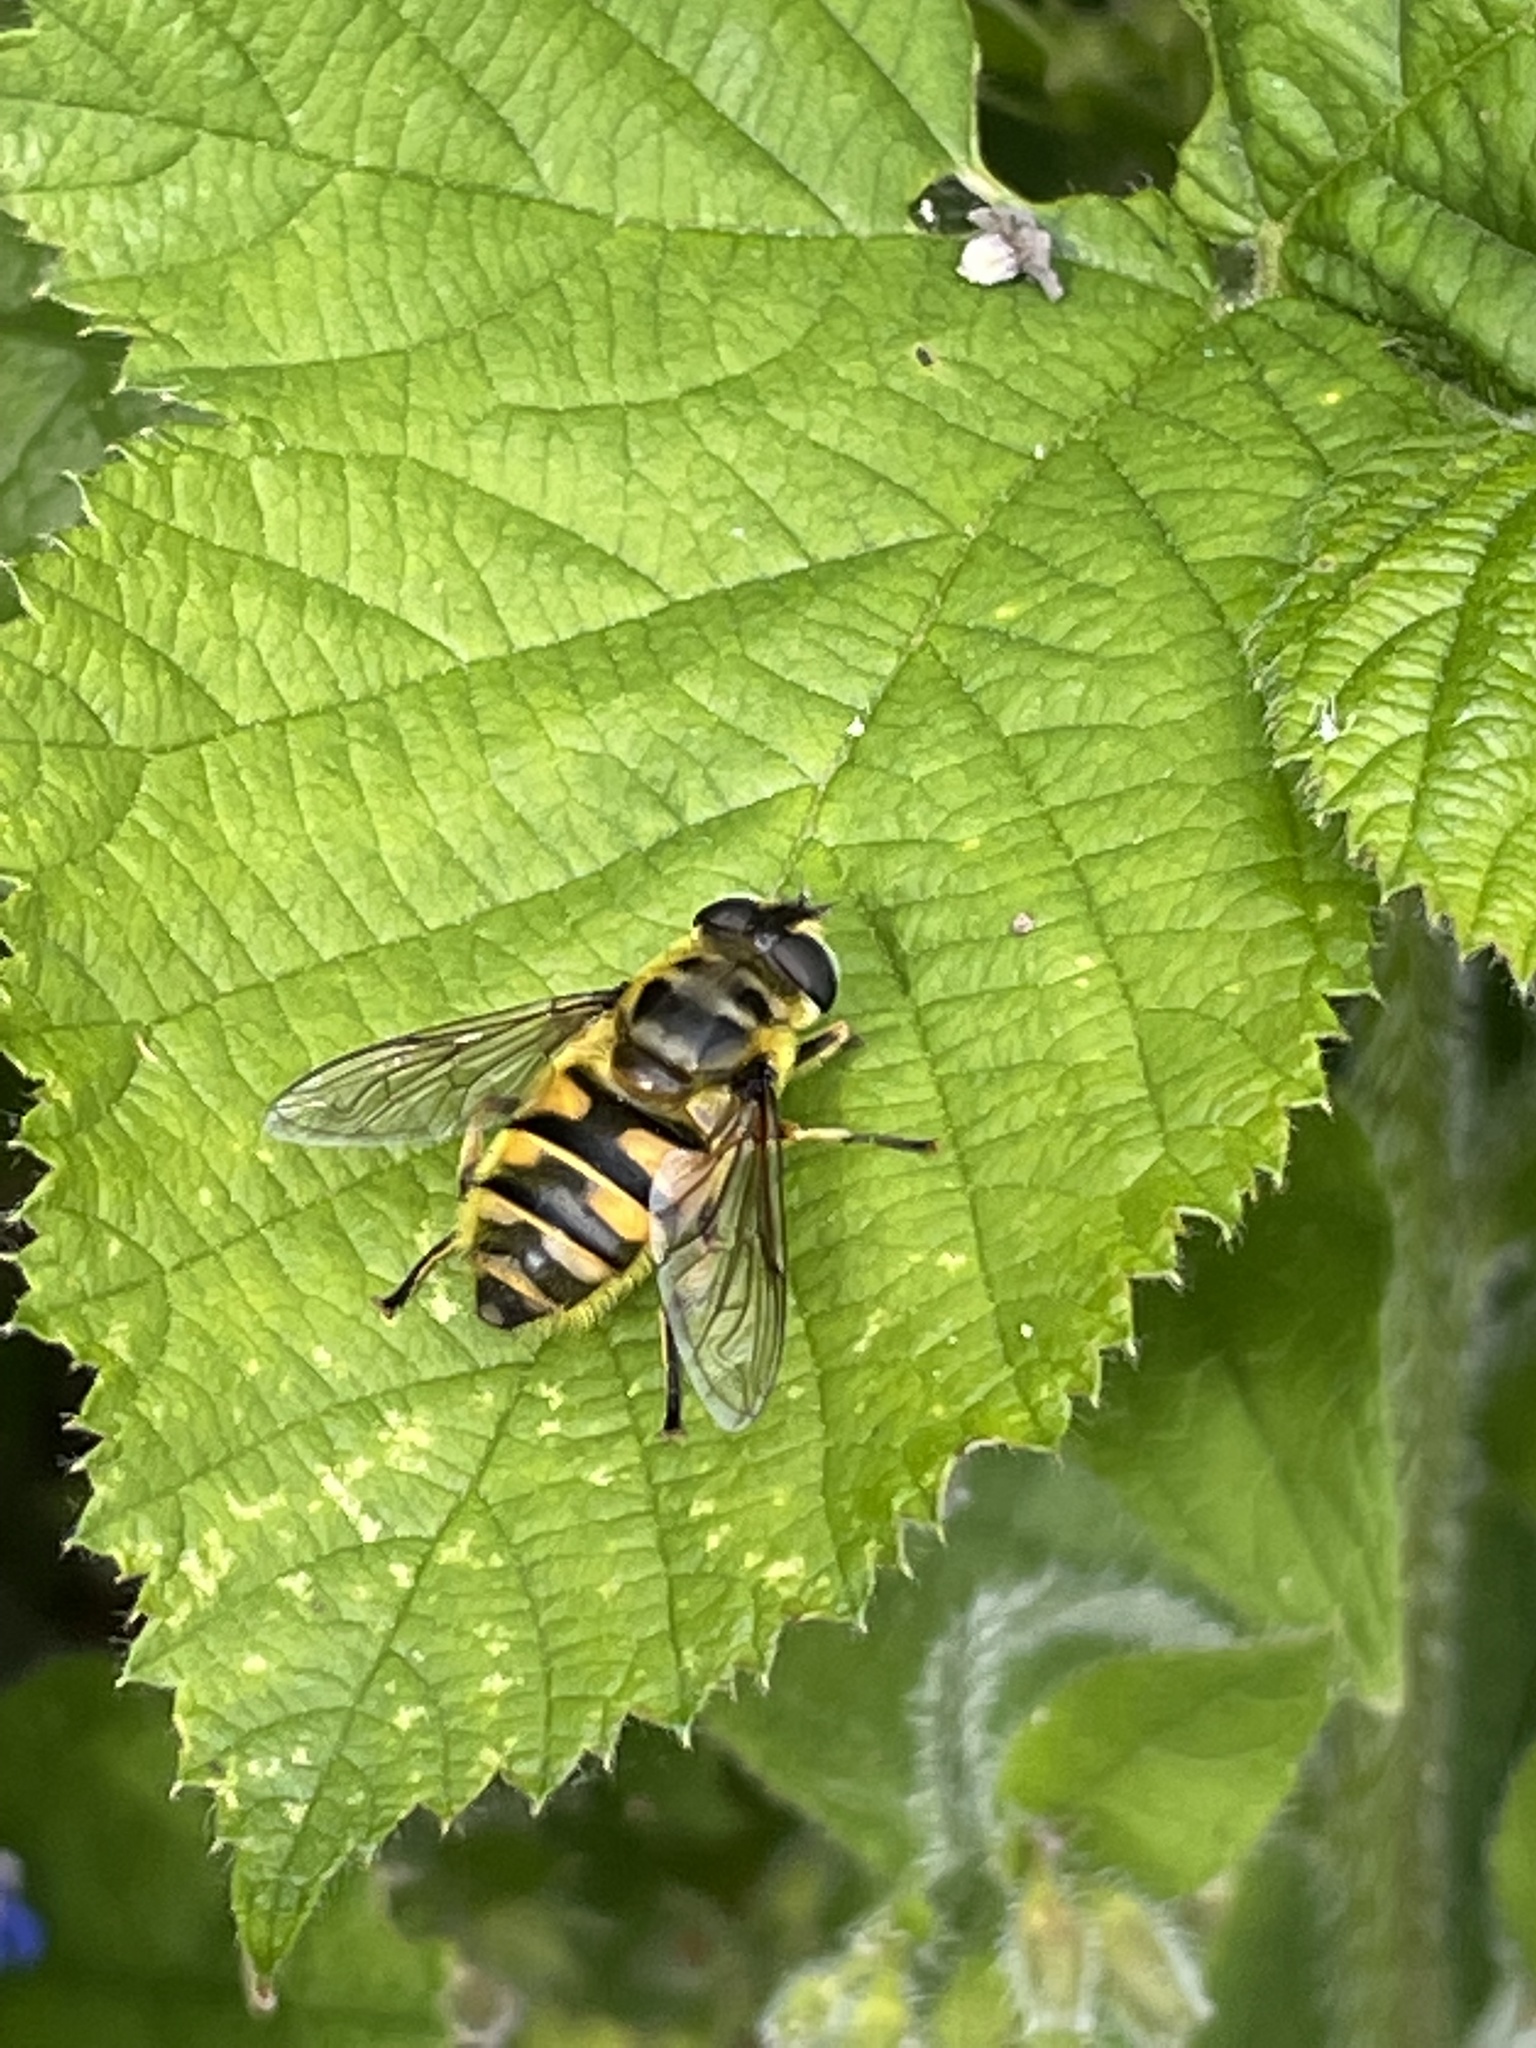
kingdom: Animalia
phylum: Arthropoda
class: Insecta
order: Diptera
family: Syrphidae
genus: Myathropa
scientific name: Myathropa florea
